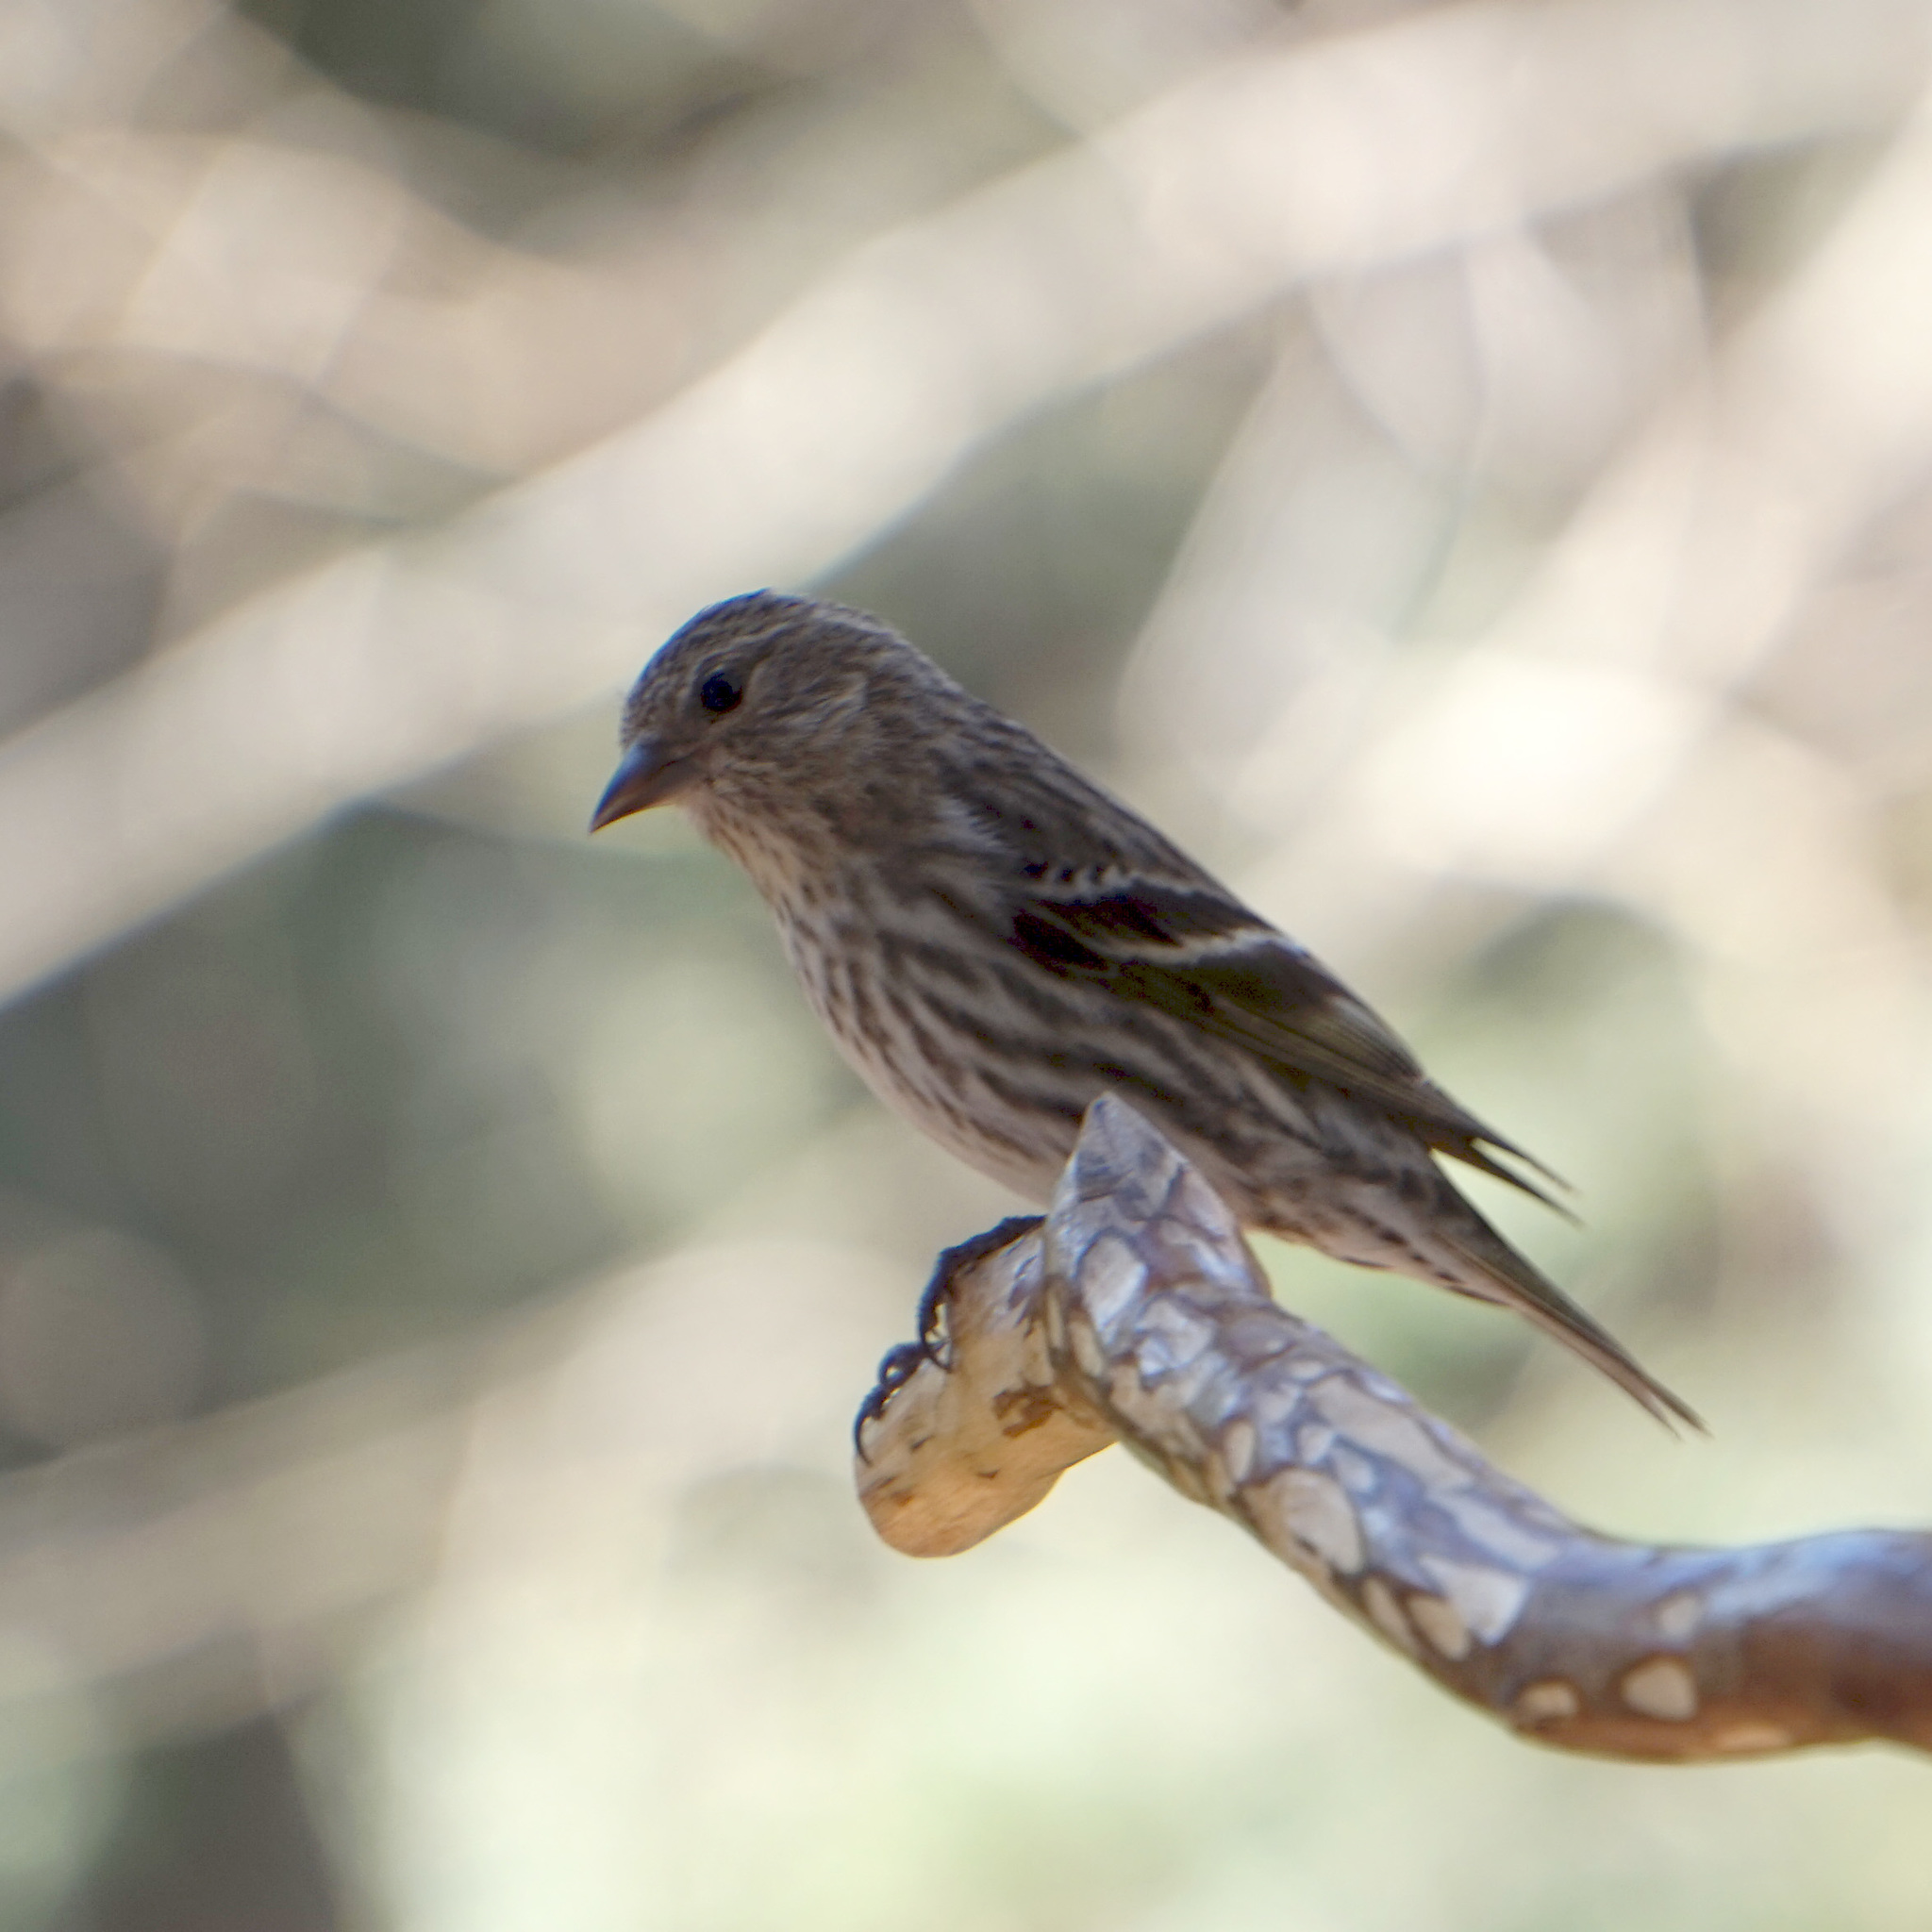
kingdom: Animalia
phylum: Chordata
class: Aves
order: Passeriformes
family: Fringillidae
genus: Spinus
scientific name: Spinus pinus
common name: Pine siskin
